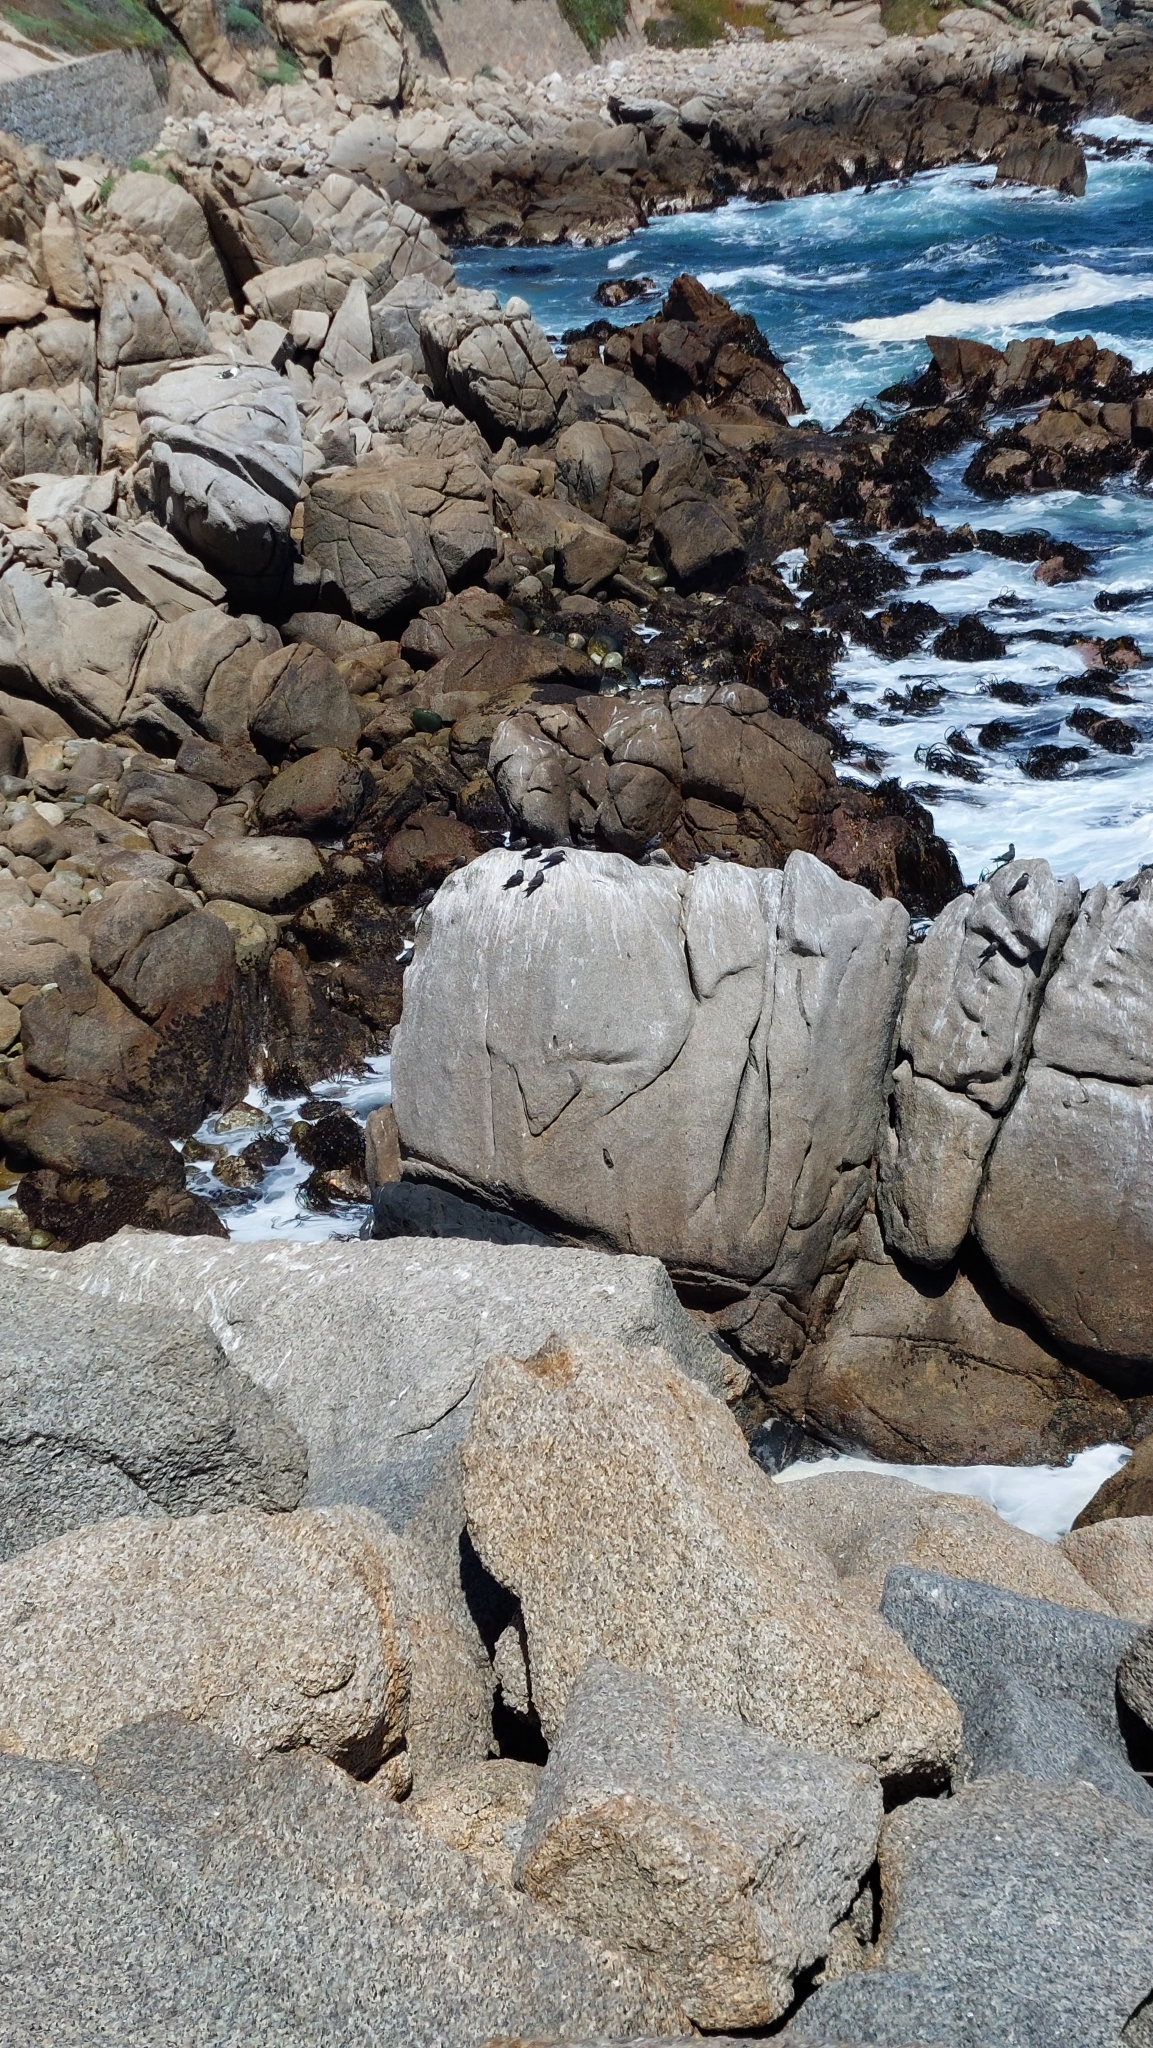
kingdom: Animalia
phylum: Chordata
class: Aves
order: Charadriiformes
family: Laridae
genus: Larosterna
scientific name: Larosterna inca
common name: Inca tern
